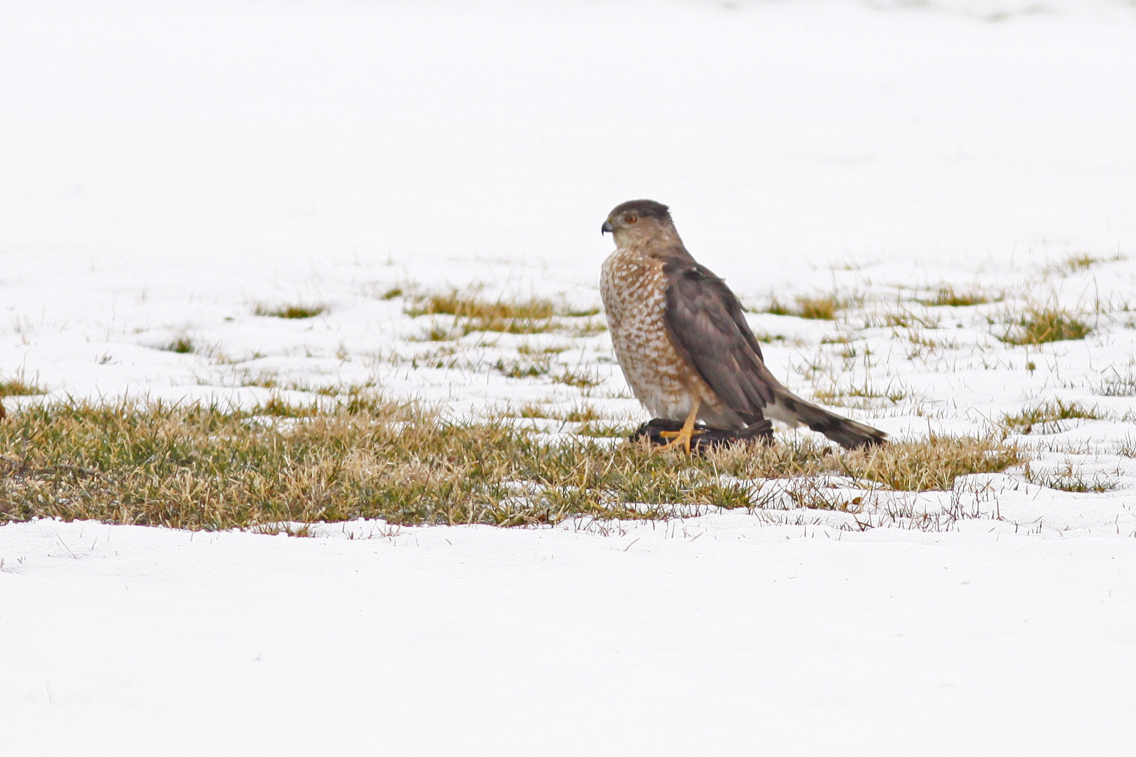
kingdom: Animalia
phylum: Chordata
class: Aves
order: Accipitriformes
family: Accipitridae
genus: Accipiter
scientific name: Accipiter cooperii
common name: Cooper's hawk
